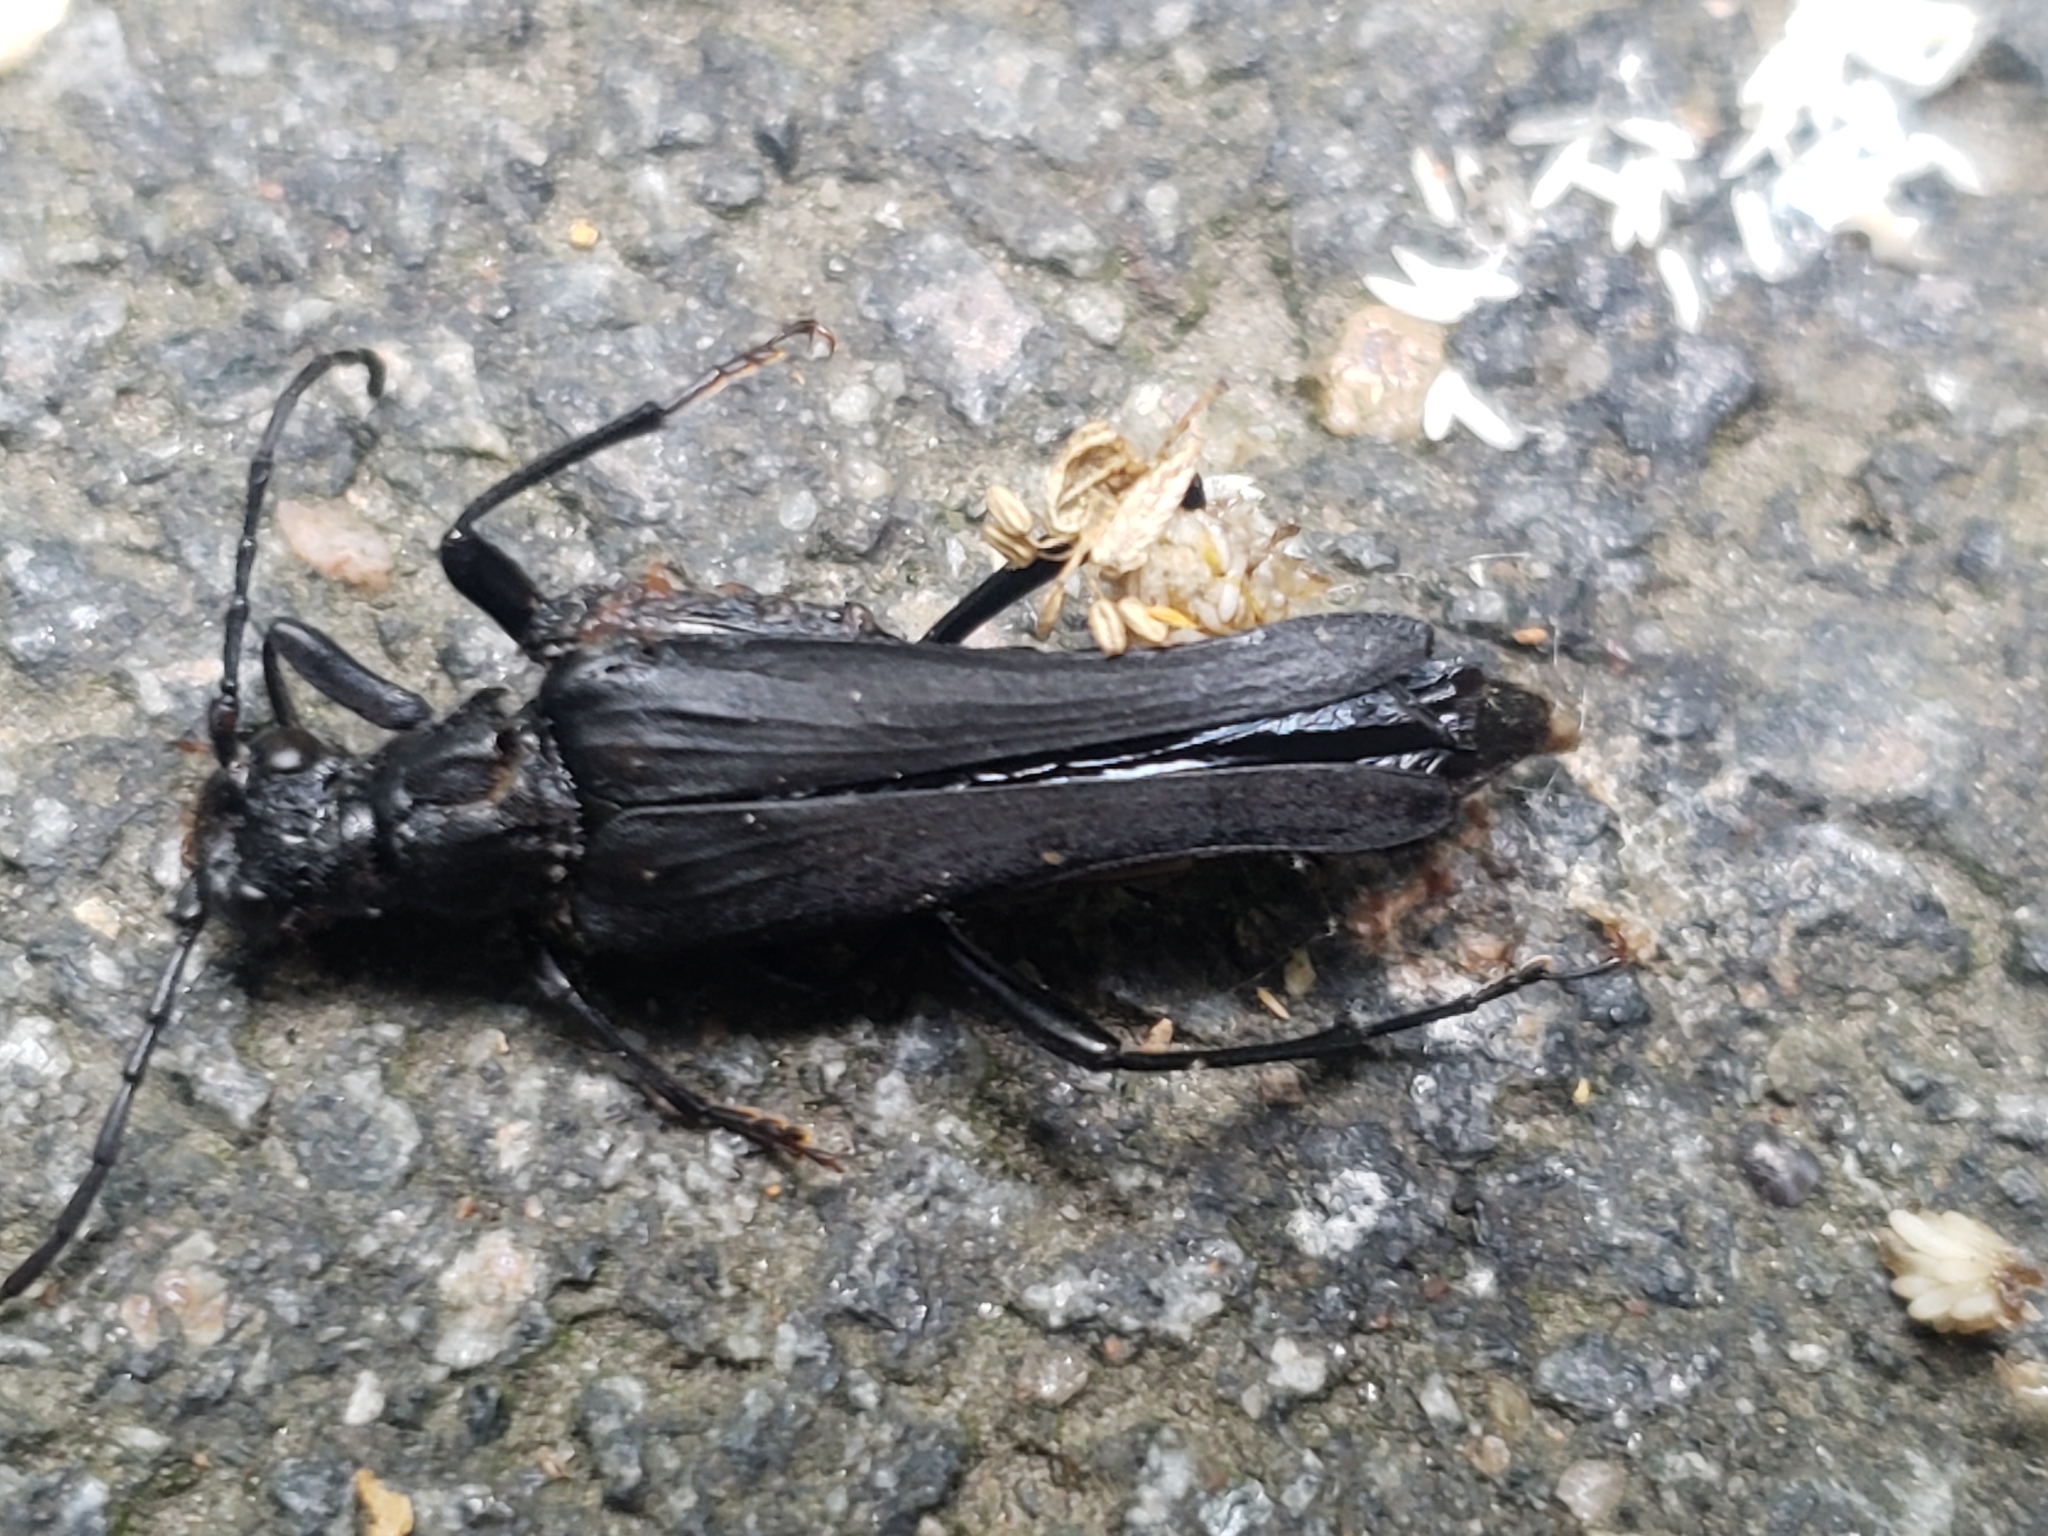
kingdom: Animalia
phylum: Arthropoda
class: Insecta
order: Coleoptera
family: Cerambycidae
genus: Bellamira
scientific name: Bellamira scalaris
